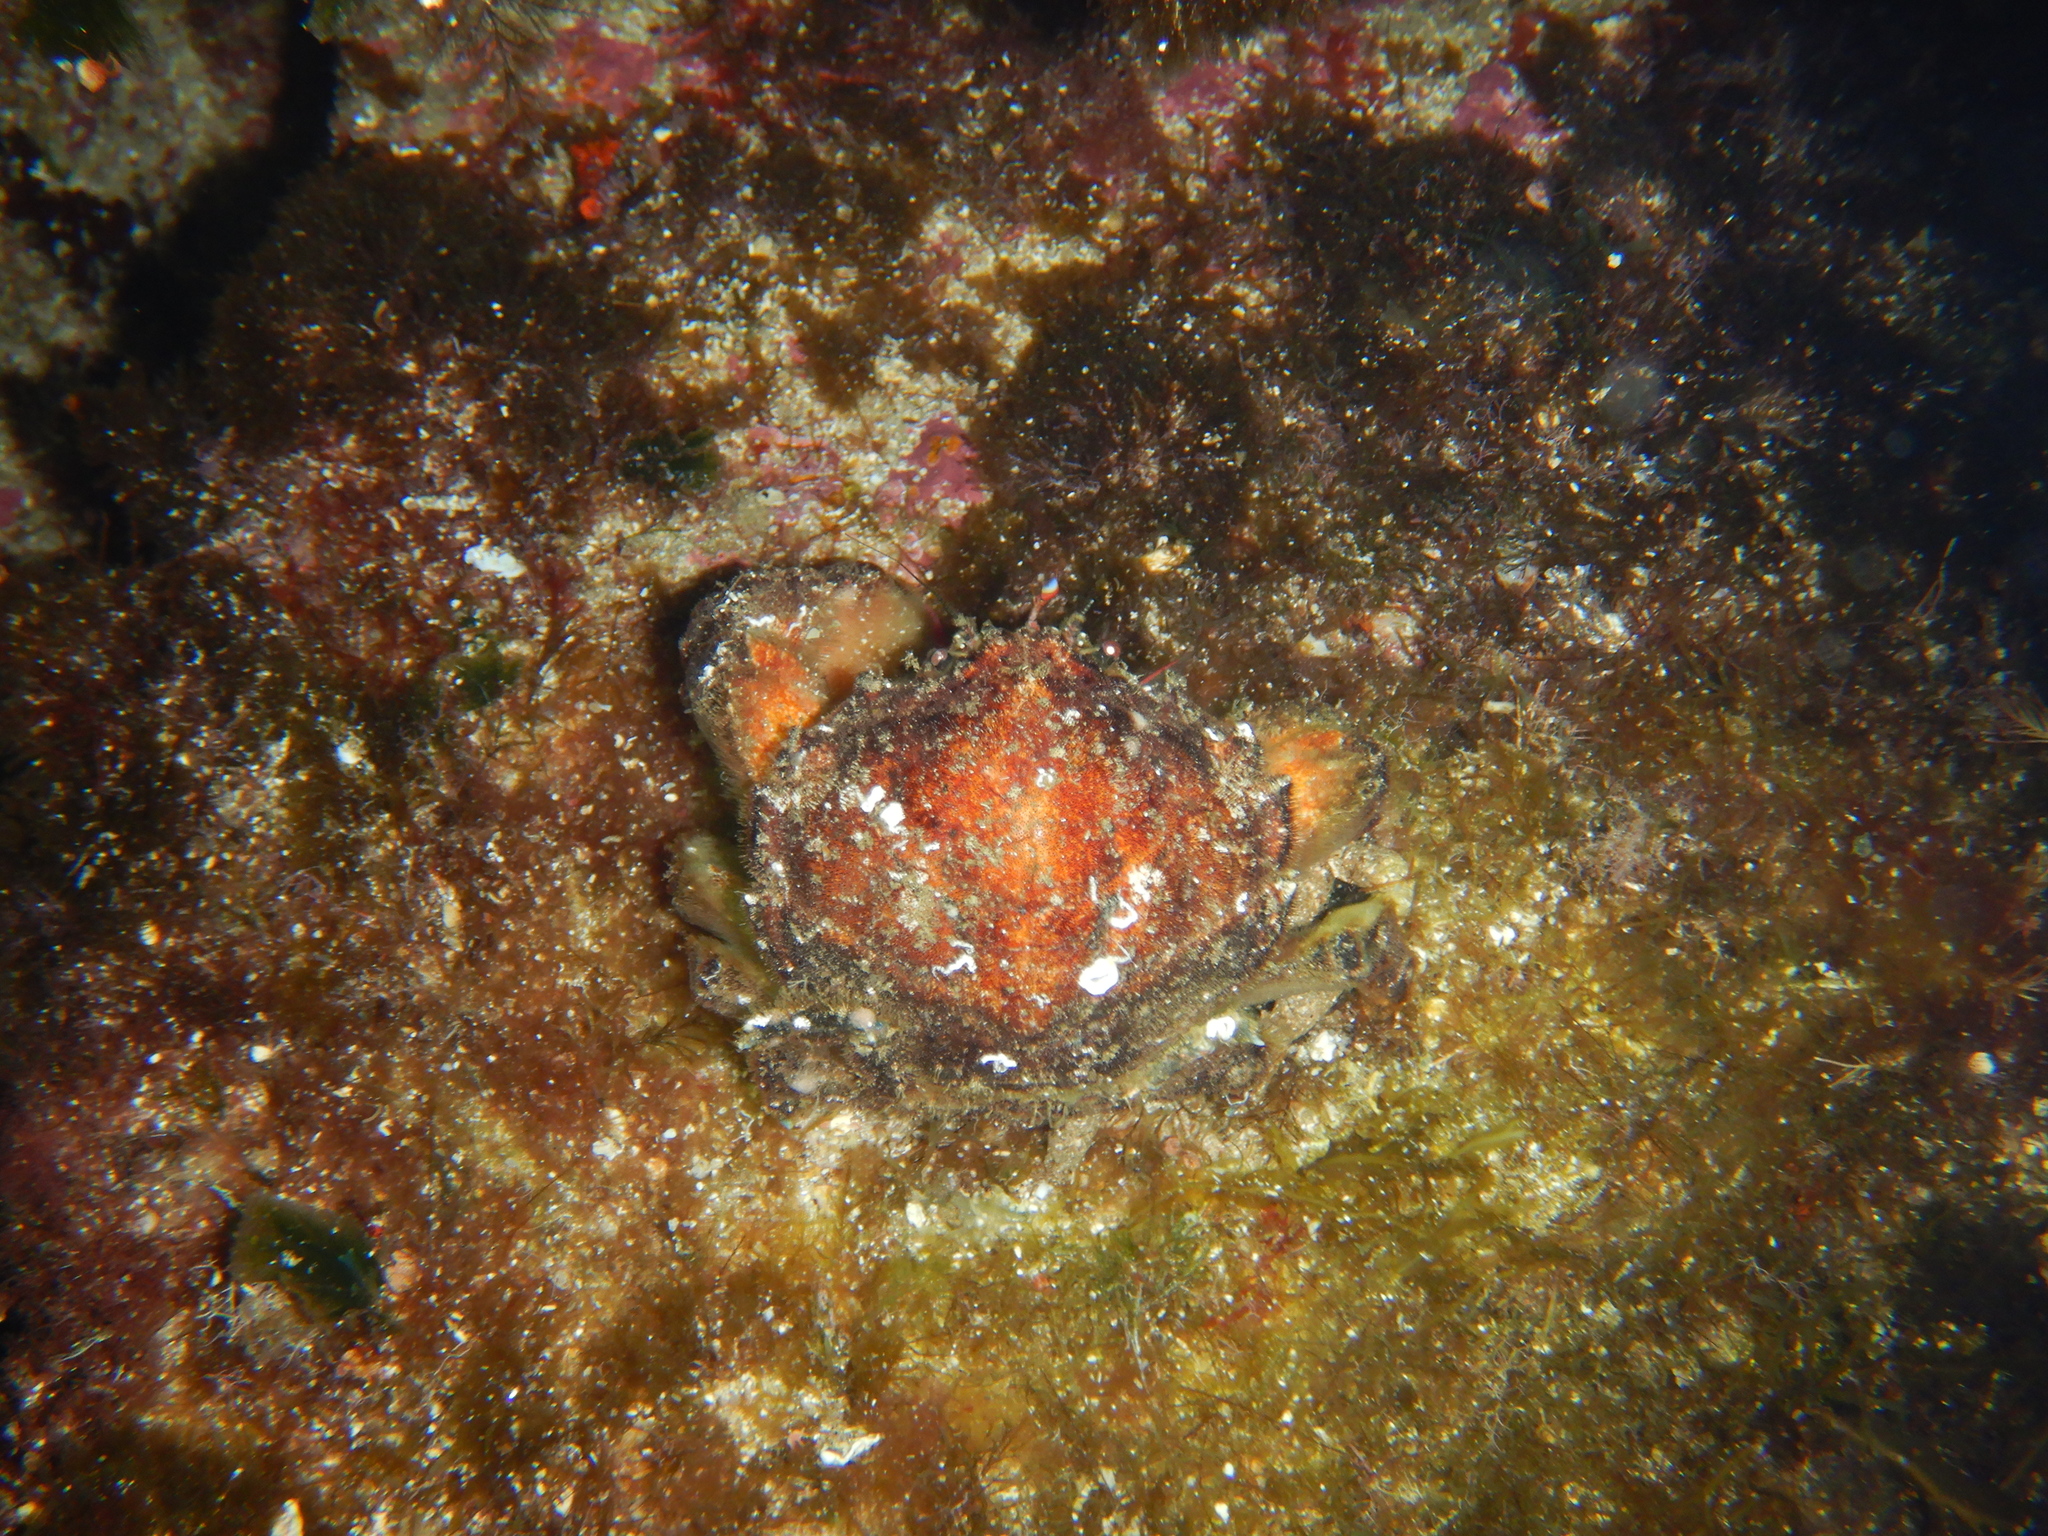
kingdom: Animalia
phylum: Arthropoda
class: Malacostraca
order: Decapoda
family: Dromiidae
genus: Dromia
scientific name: Dromia personata
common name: Sleepy crab
